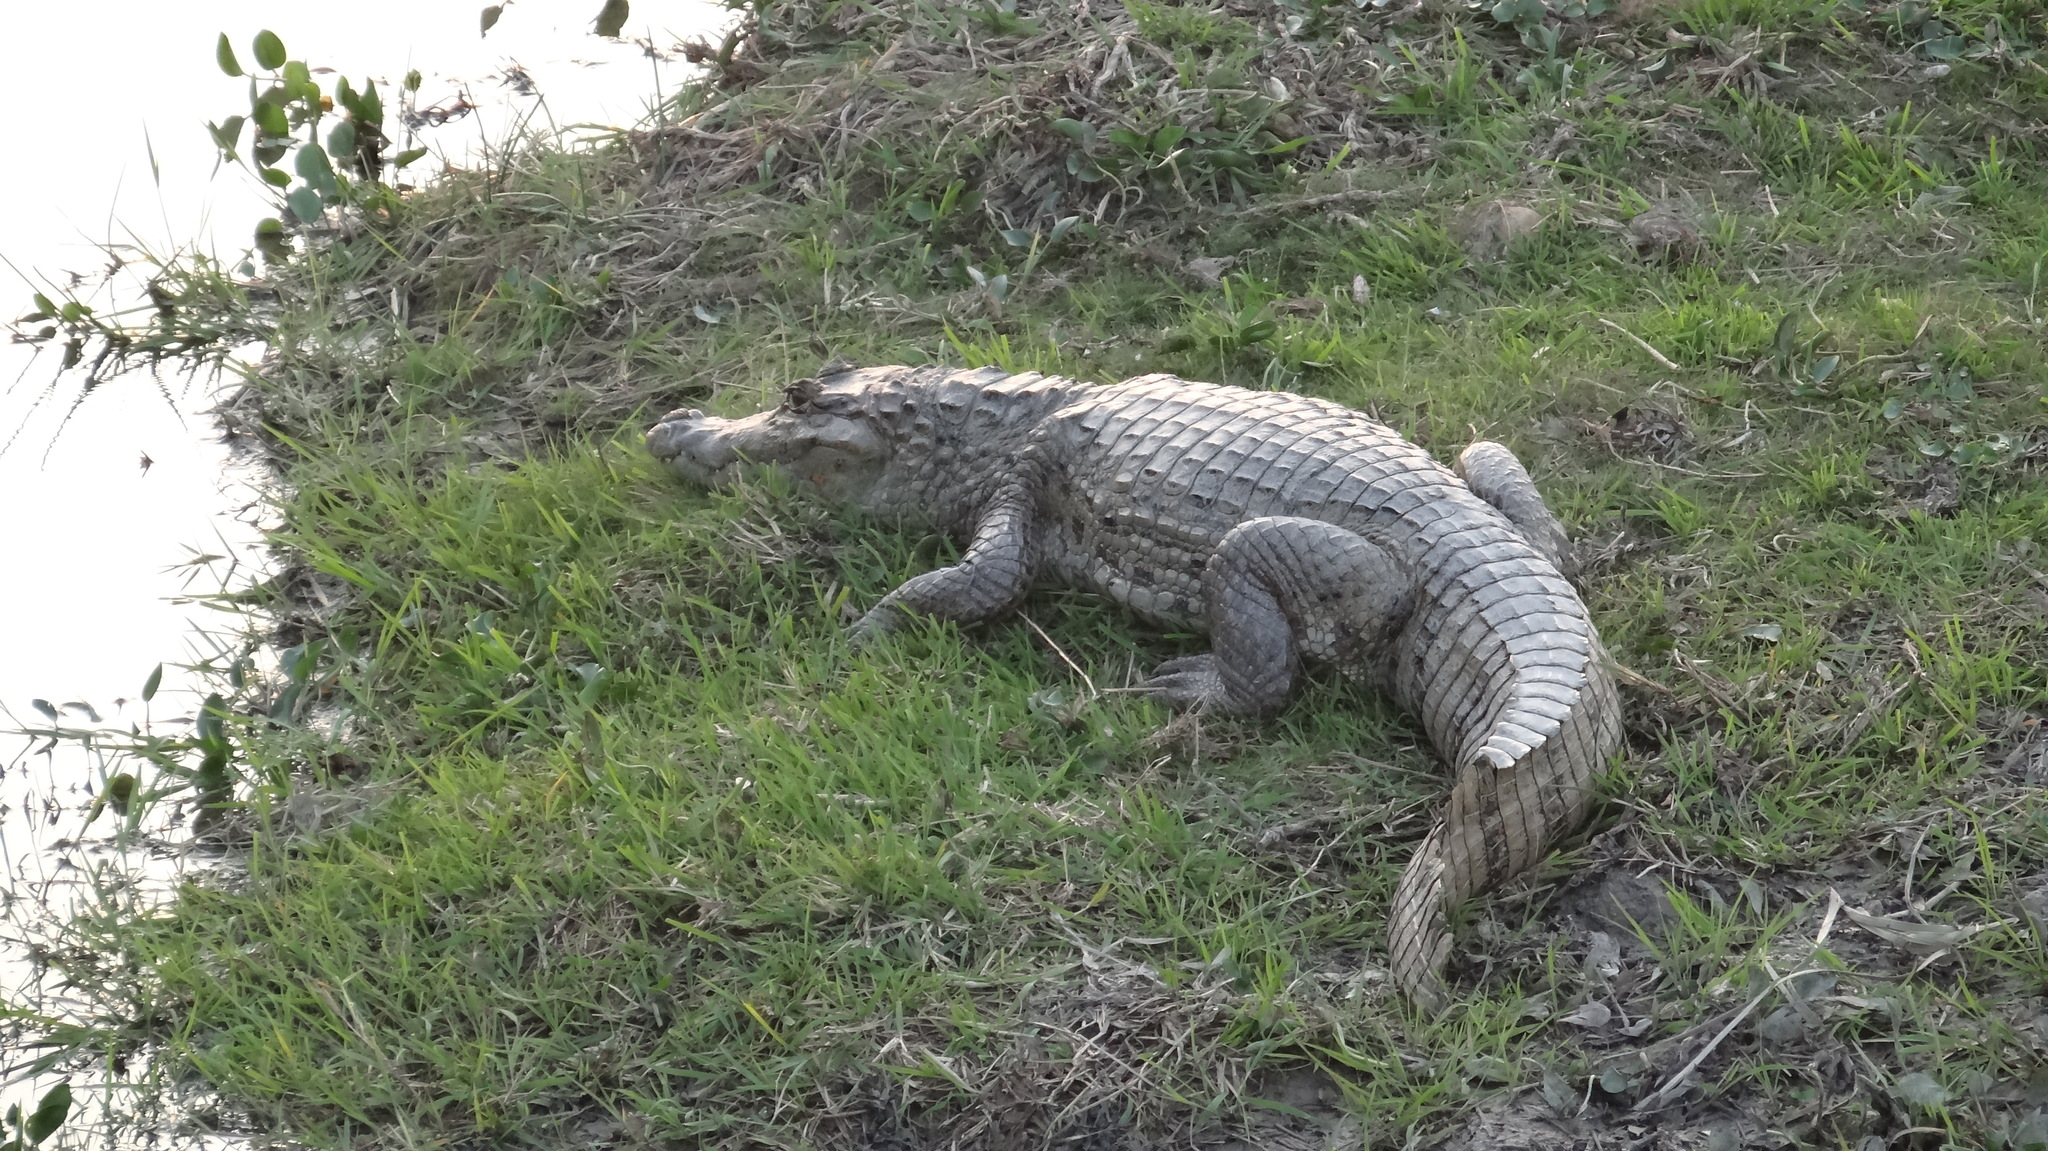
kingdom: Animalia
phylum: Chordata
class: Crocodylia
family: Alligatoridae
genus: Caiman
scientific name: Caiman crocodilus
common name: Common caiman
